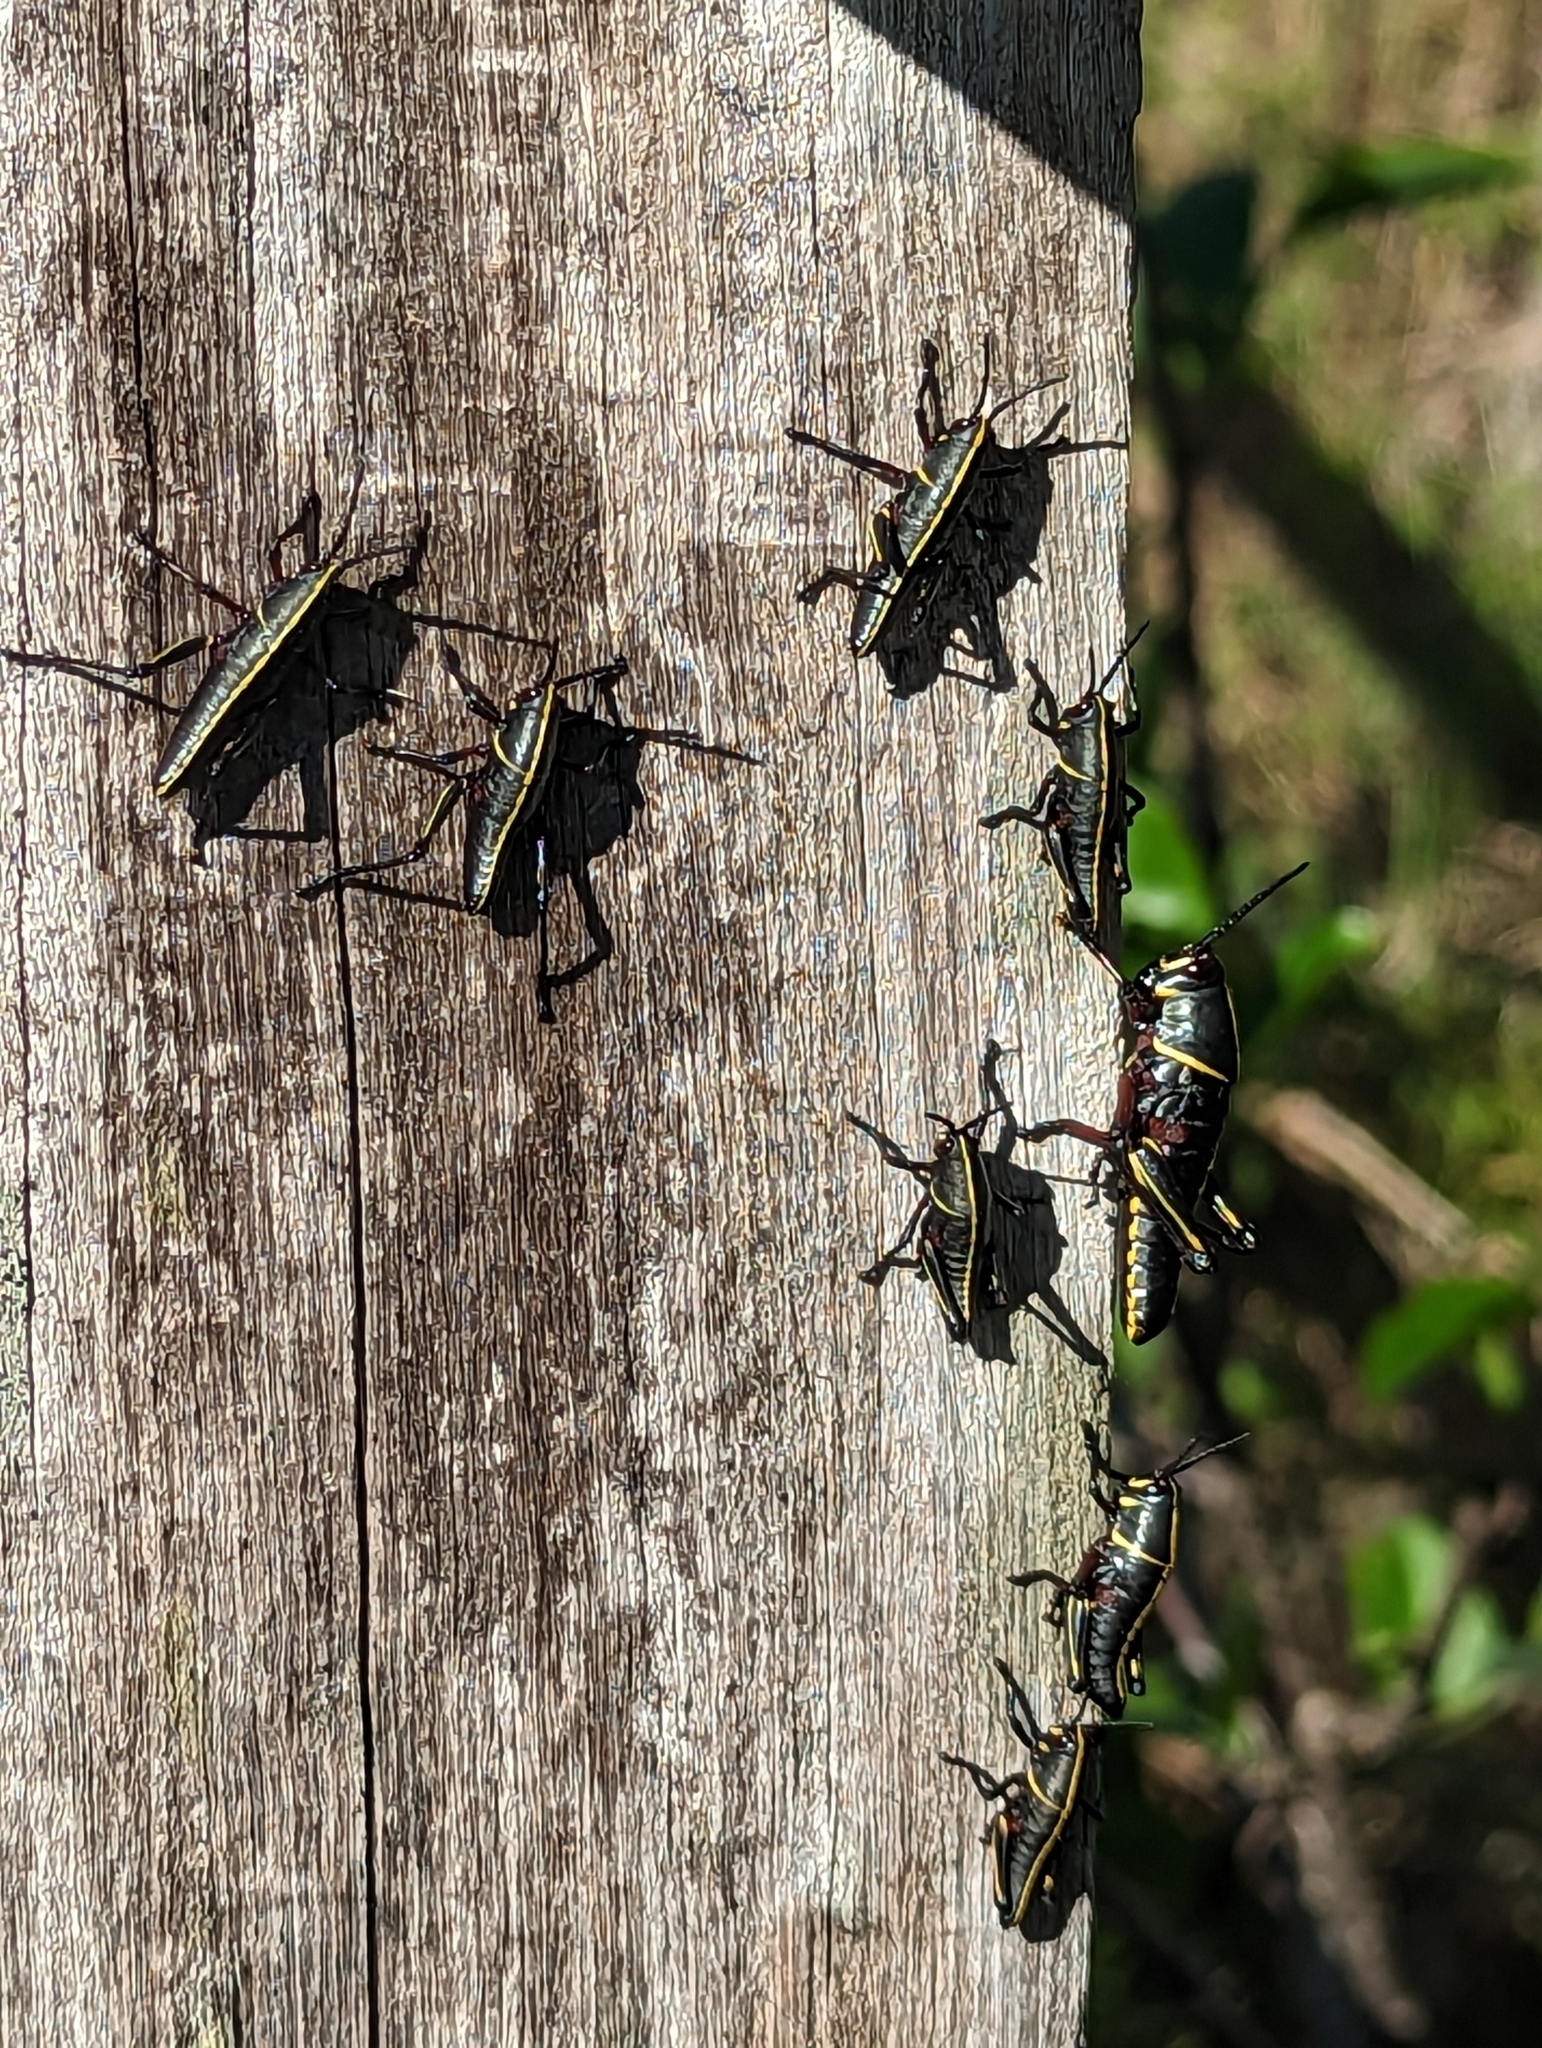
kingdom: Animalia
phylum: Arthropoda
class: Insecta
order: Orthoptera
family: Romaleidae
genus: Romalea
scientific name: Romalea microptera
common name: Eastern lubber grasshopper
